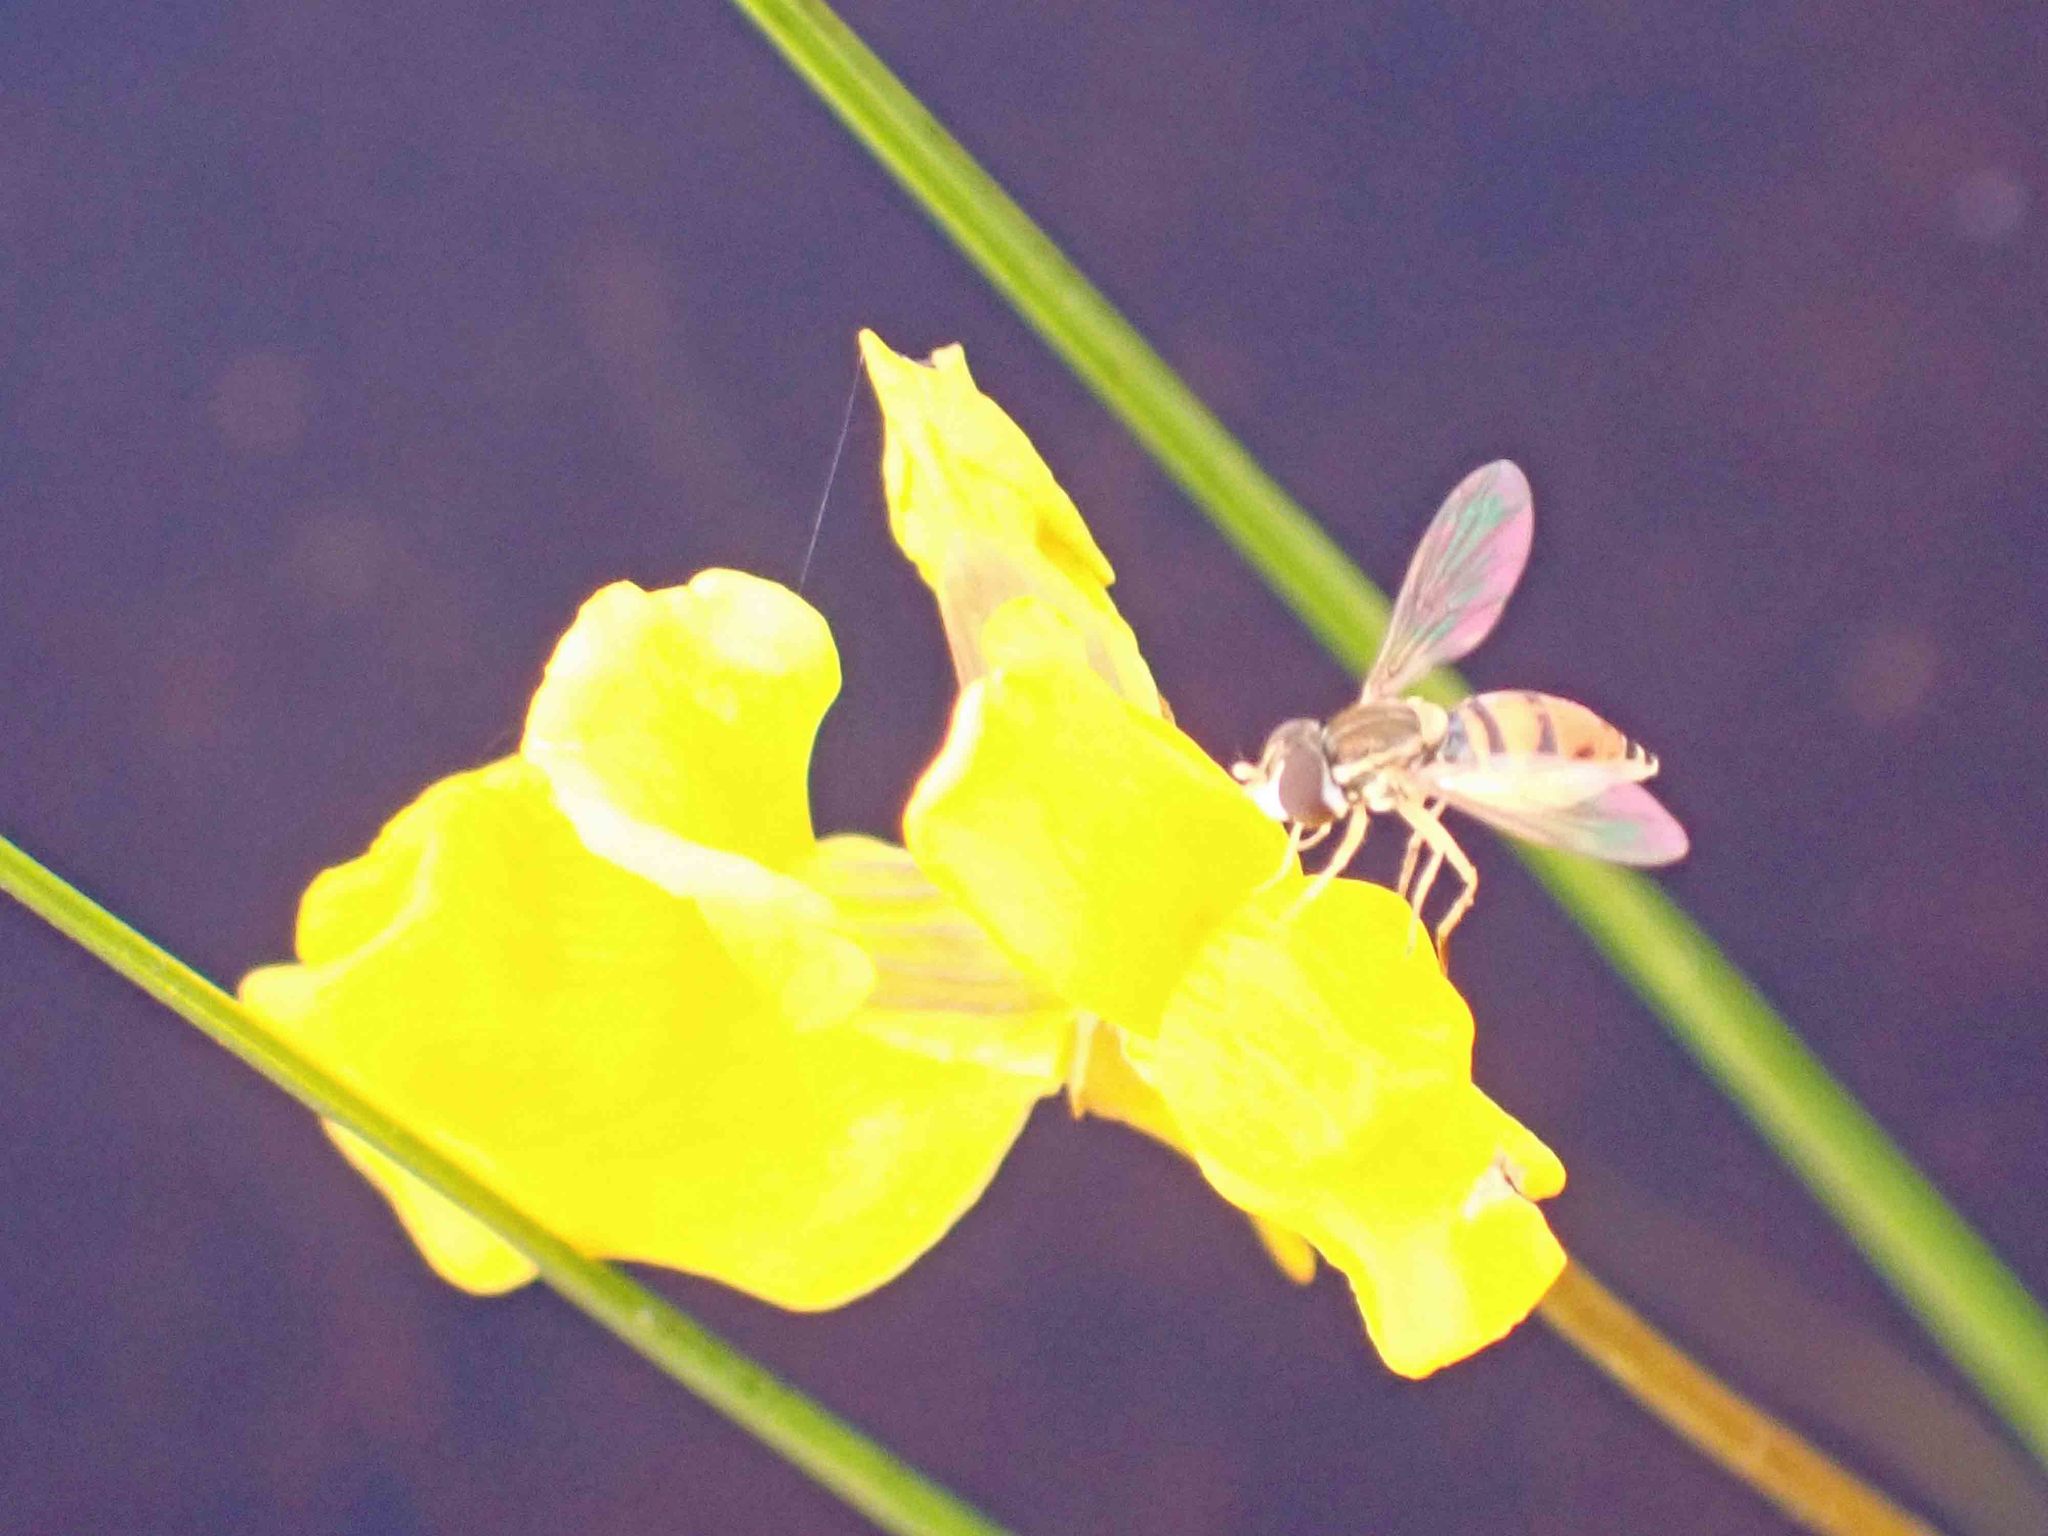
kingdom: Animalia
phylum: Arthropoda
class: Insecta
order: Diptera
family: Syrphidae
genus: Toxomerus
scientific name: Toxomerus marginatus
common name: Syrphid fly
